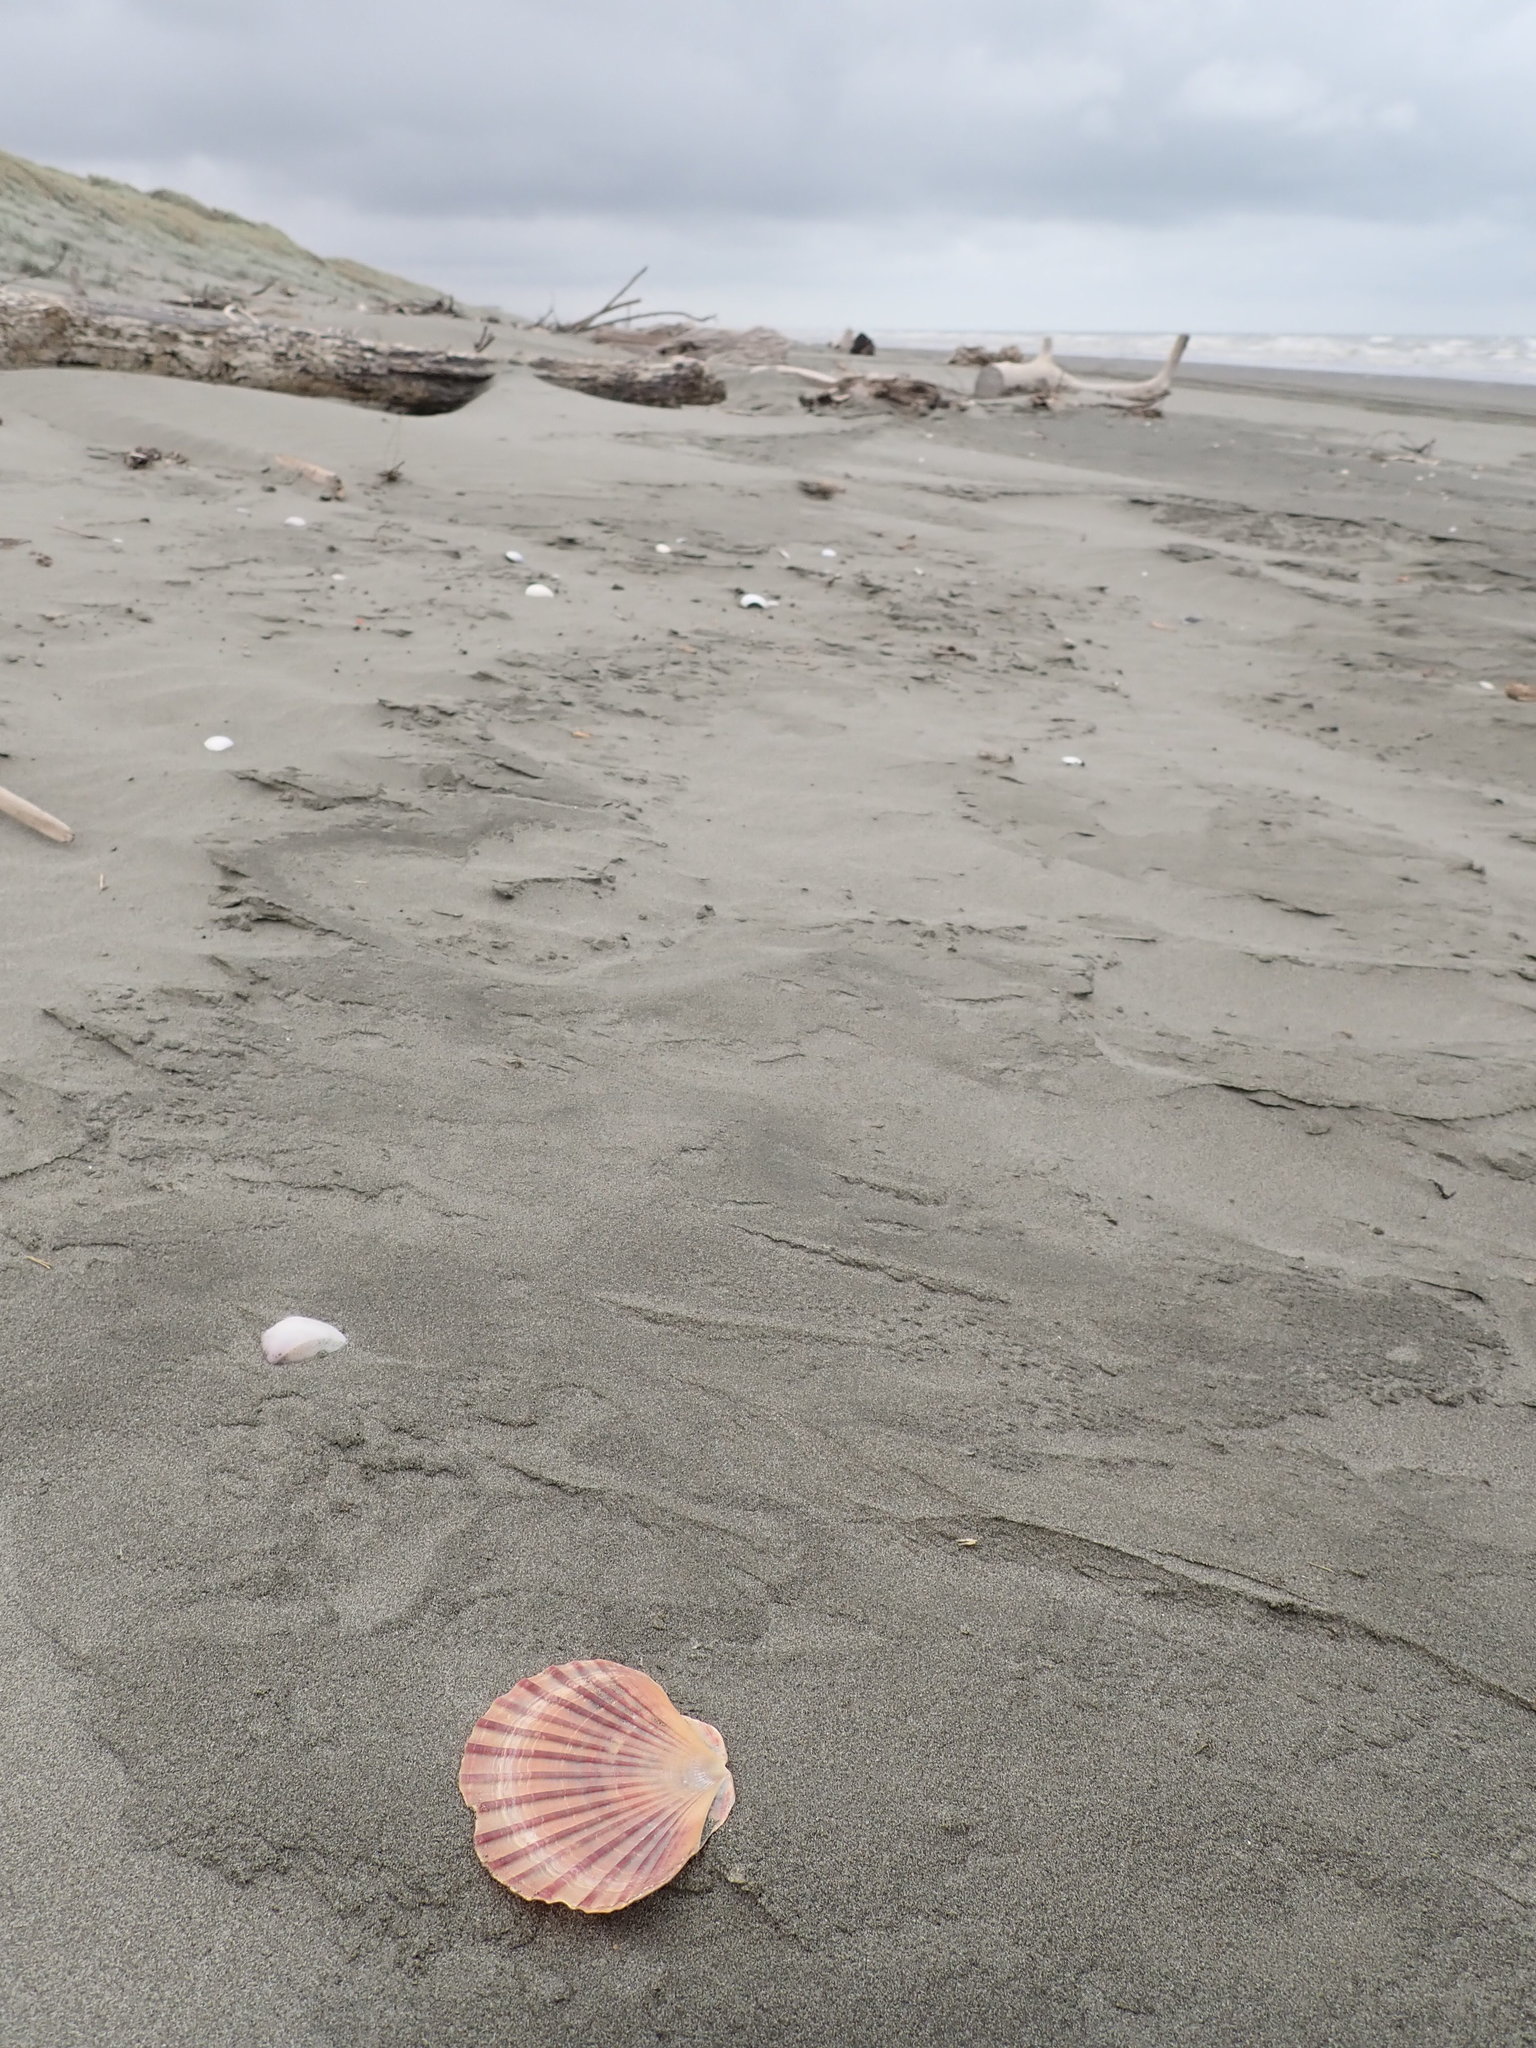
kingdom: Animalia
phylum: Mollusca
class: Bivalvia
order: Pectinida
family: Pectinidae
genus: Pecten
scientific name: Pecten novaezelandiae
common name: New zealand scallop
